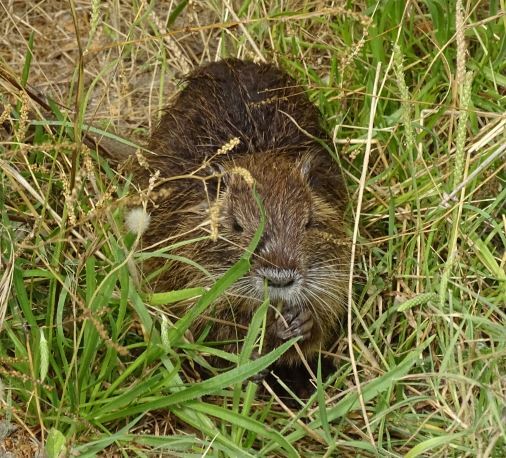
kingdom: Animalia
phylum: Chordata
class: Mammalia
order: Rodentia
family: Myocastoridae
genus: Myocastor
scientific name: Myocastor coypus
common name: Coypu
